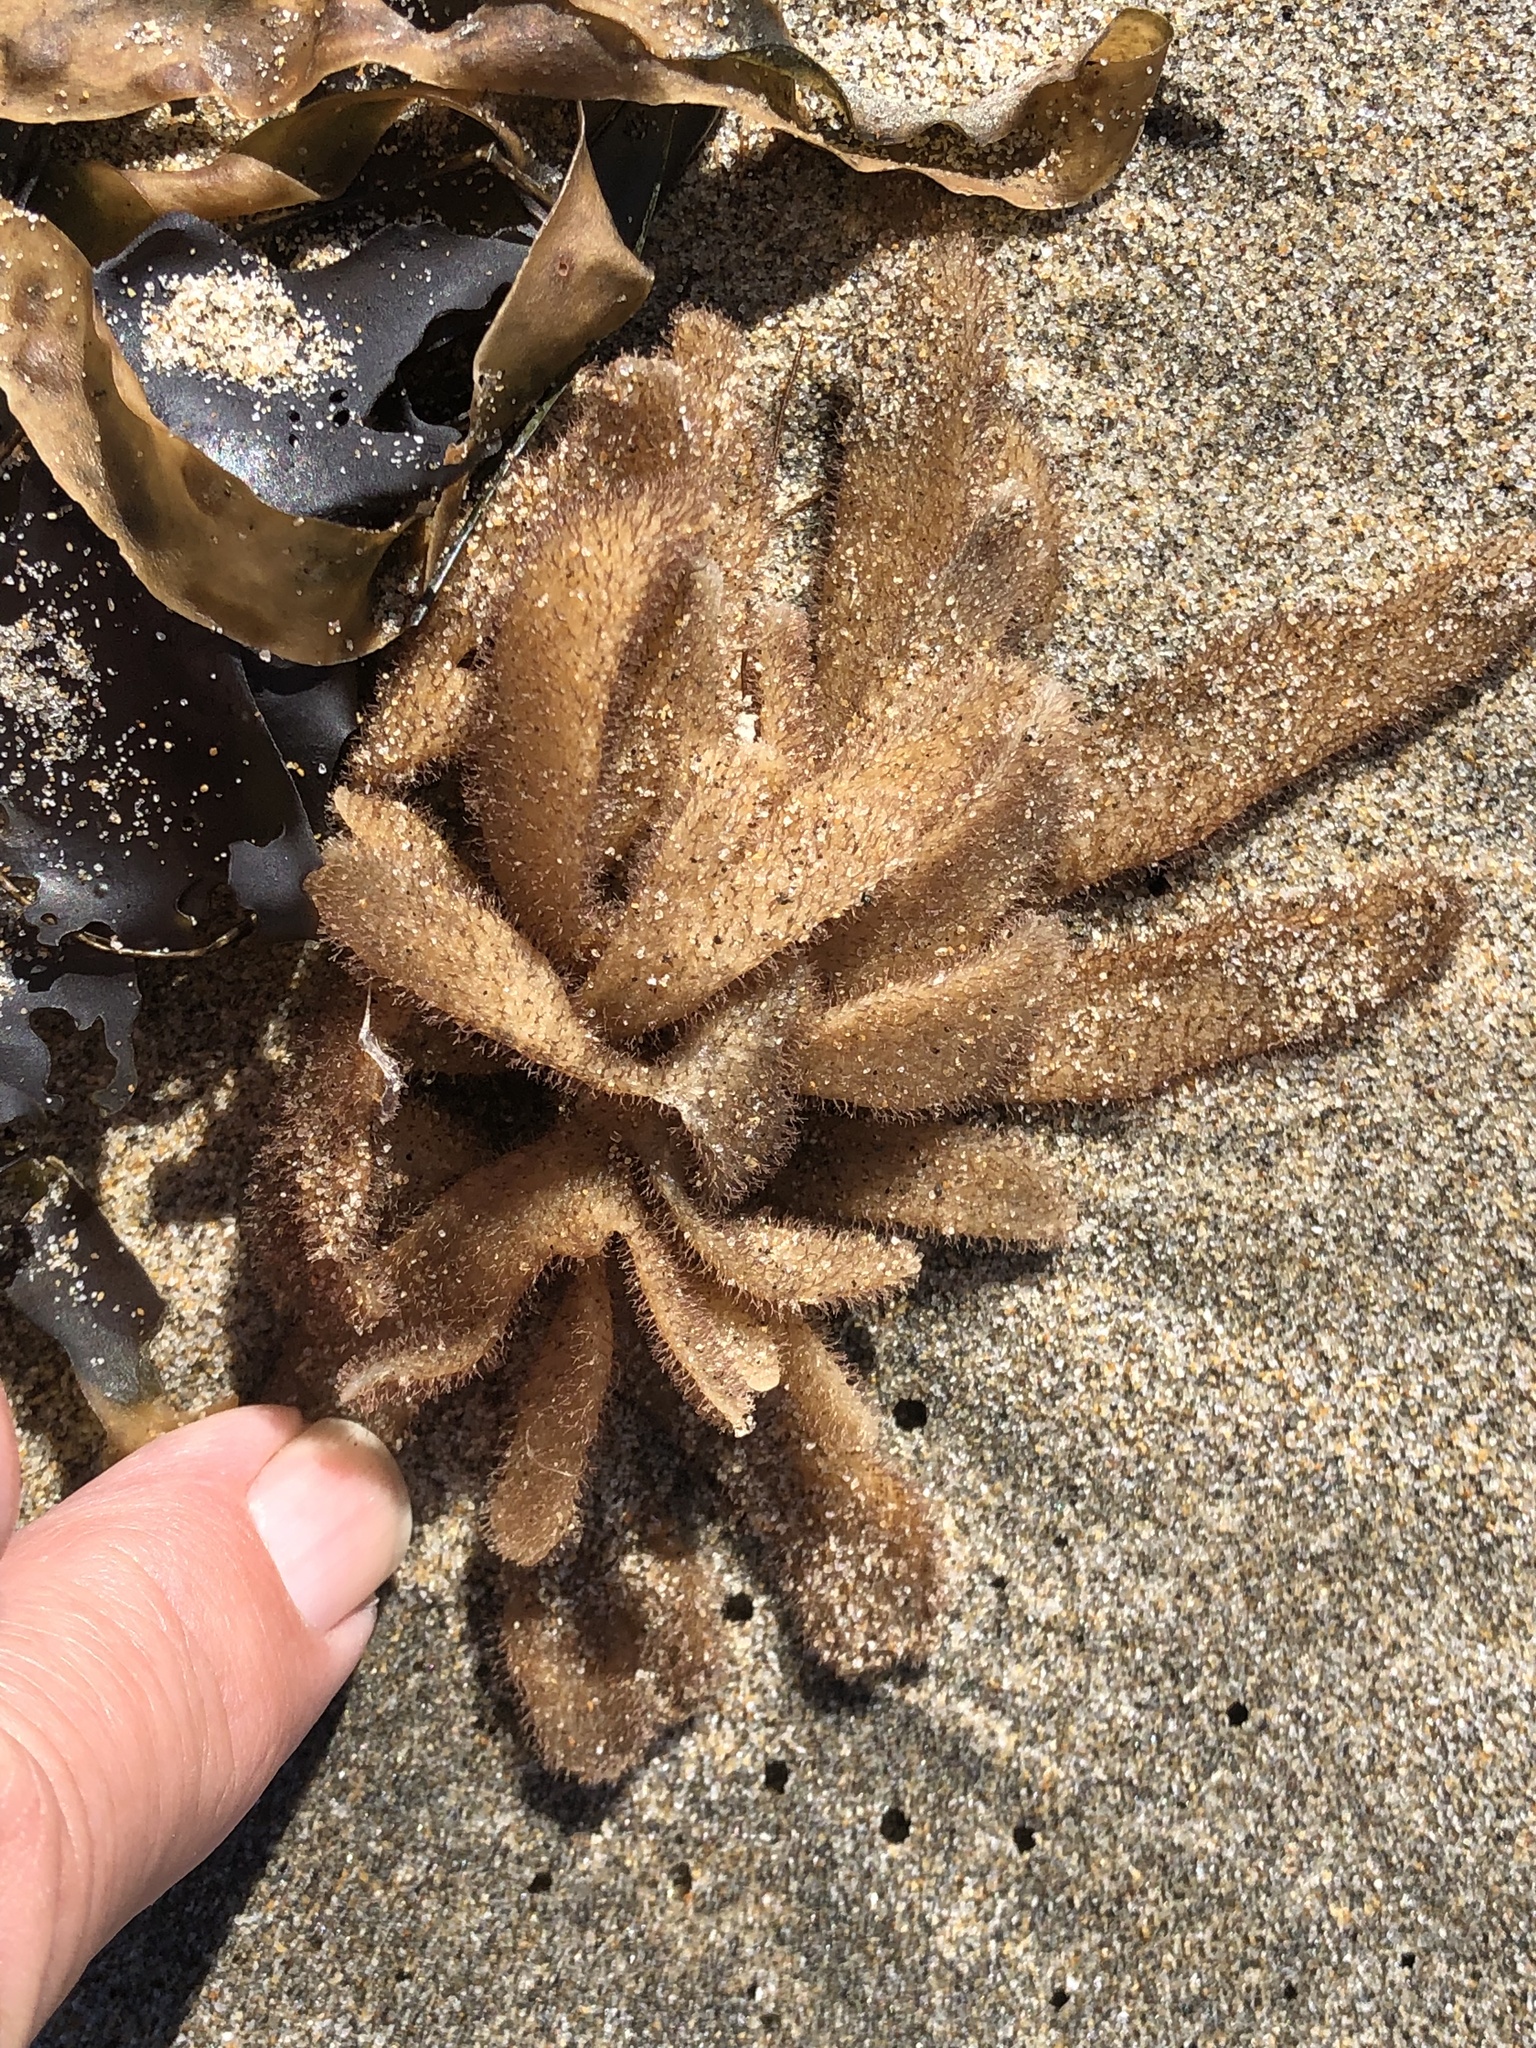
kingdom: Animalia
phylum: Bryozoa
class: Gymnolaemata
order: Ctenostomatida
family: Flustrellidridae
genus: Flustrellidra
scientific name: Flustrellidra corniculata
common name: Spiny leather bryozoan
